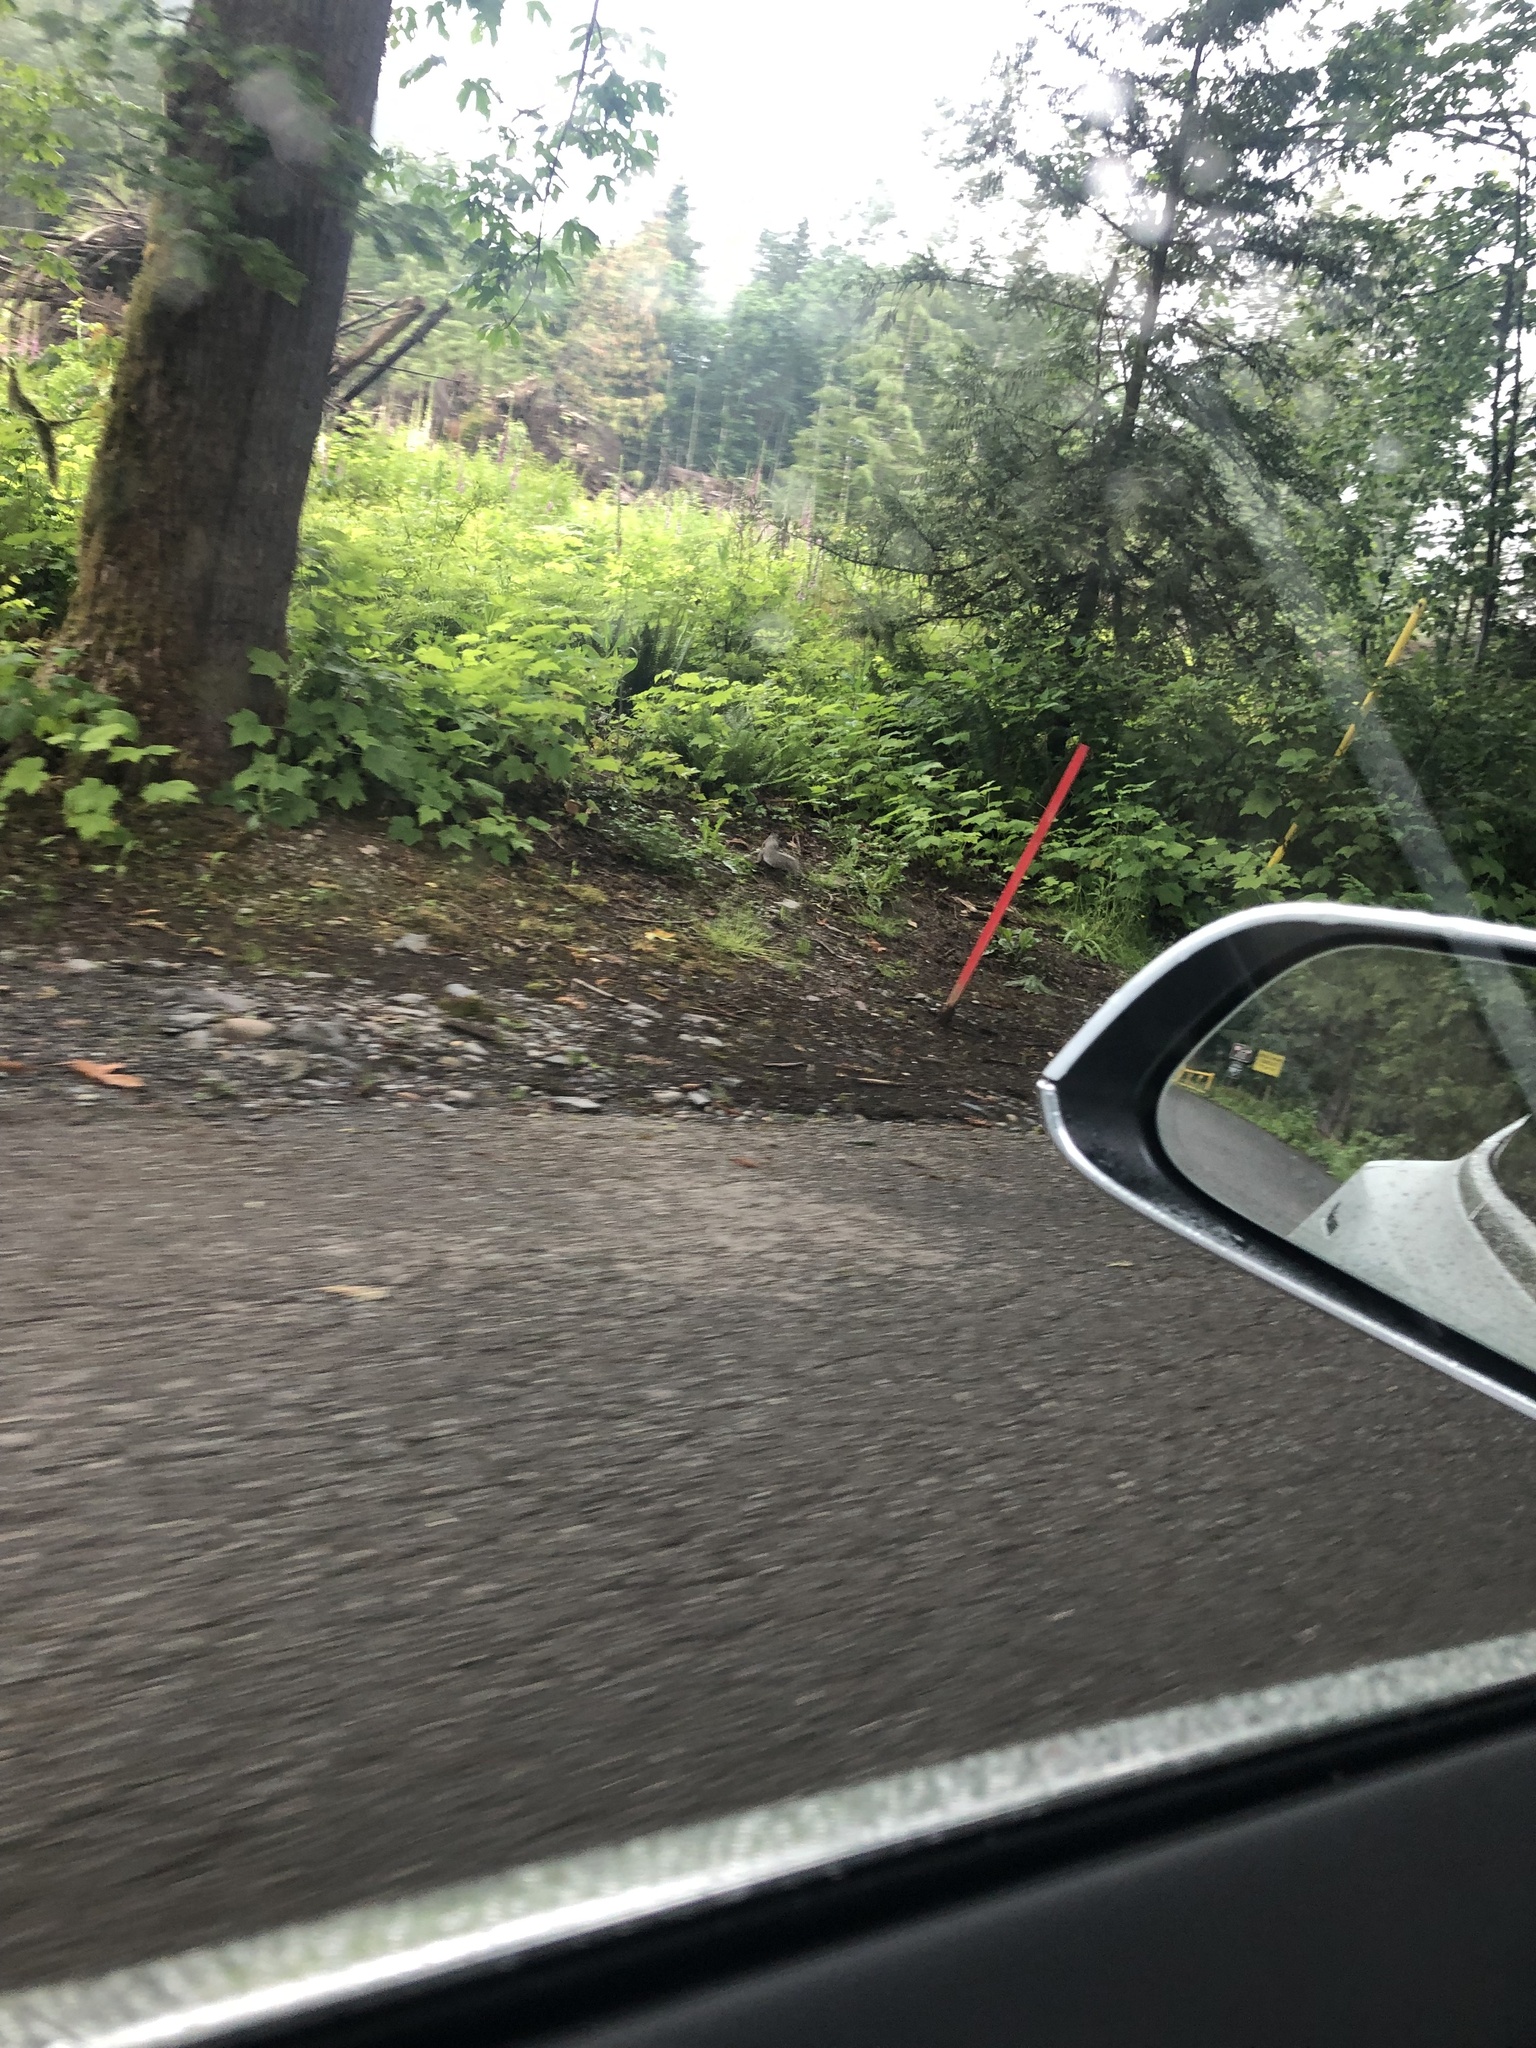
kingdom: Animalia
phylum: Chordata
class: Mammalia
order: Rodentia
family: Sciuridae
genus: Sciurus
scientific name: Sciurus carolinensis
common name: Eastern gray squirrel
